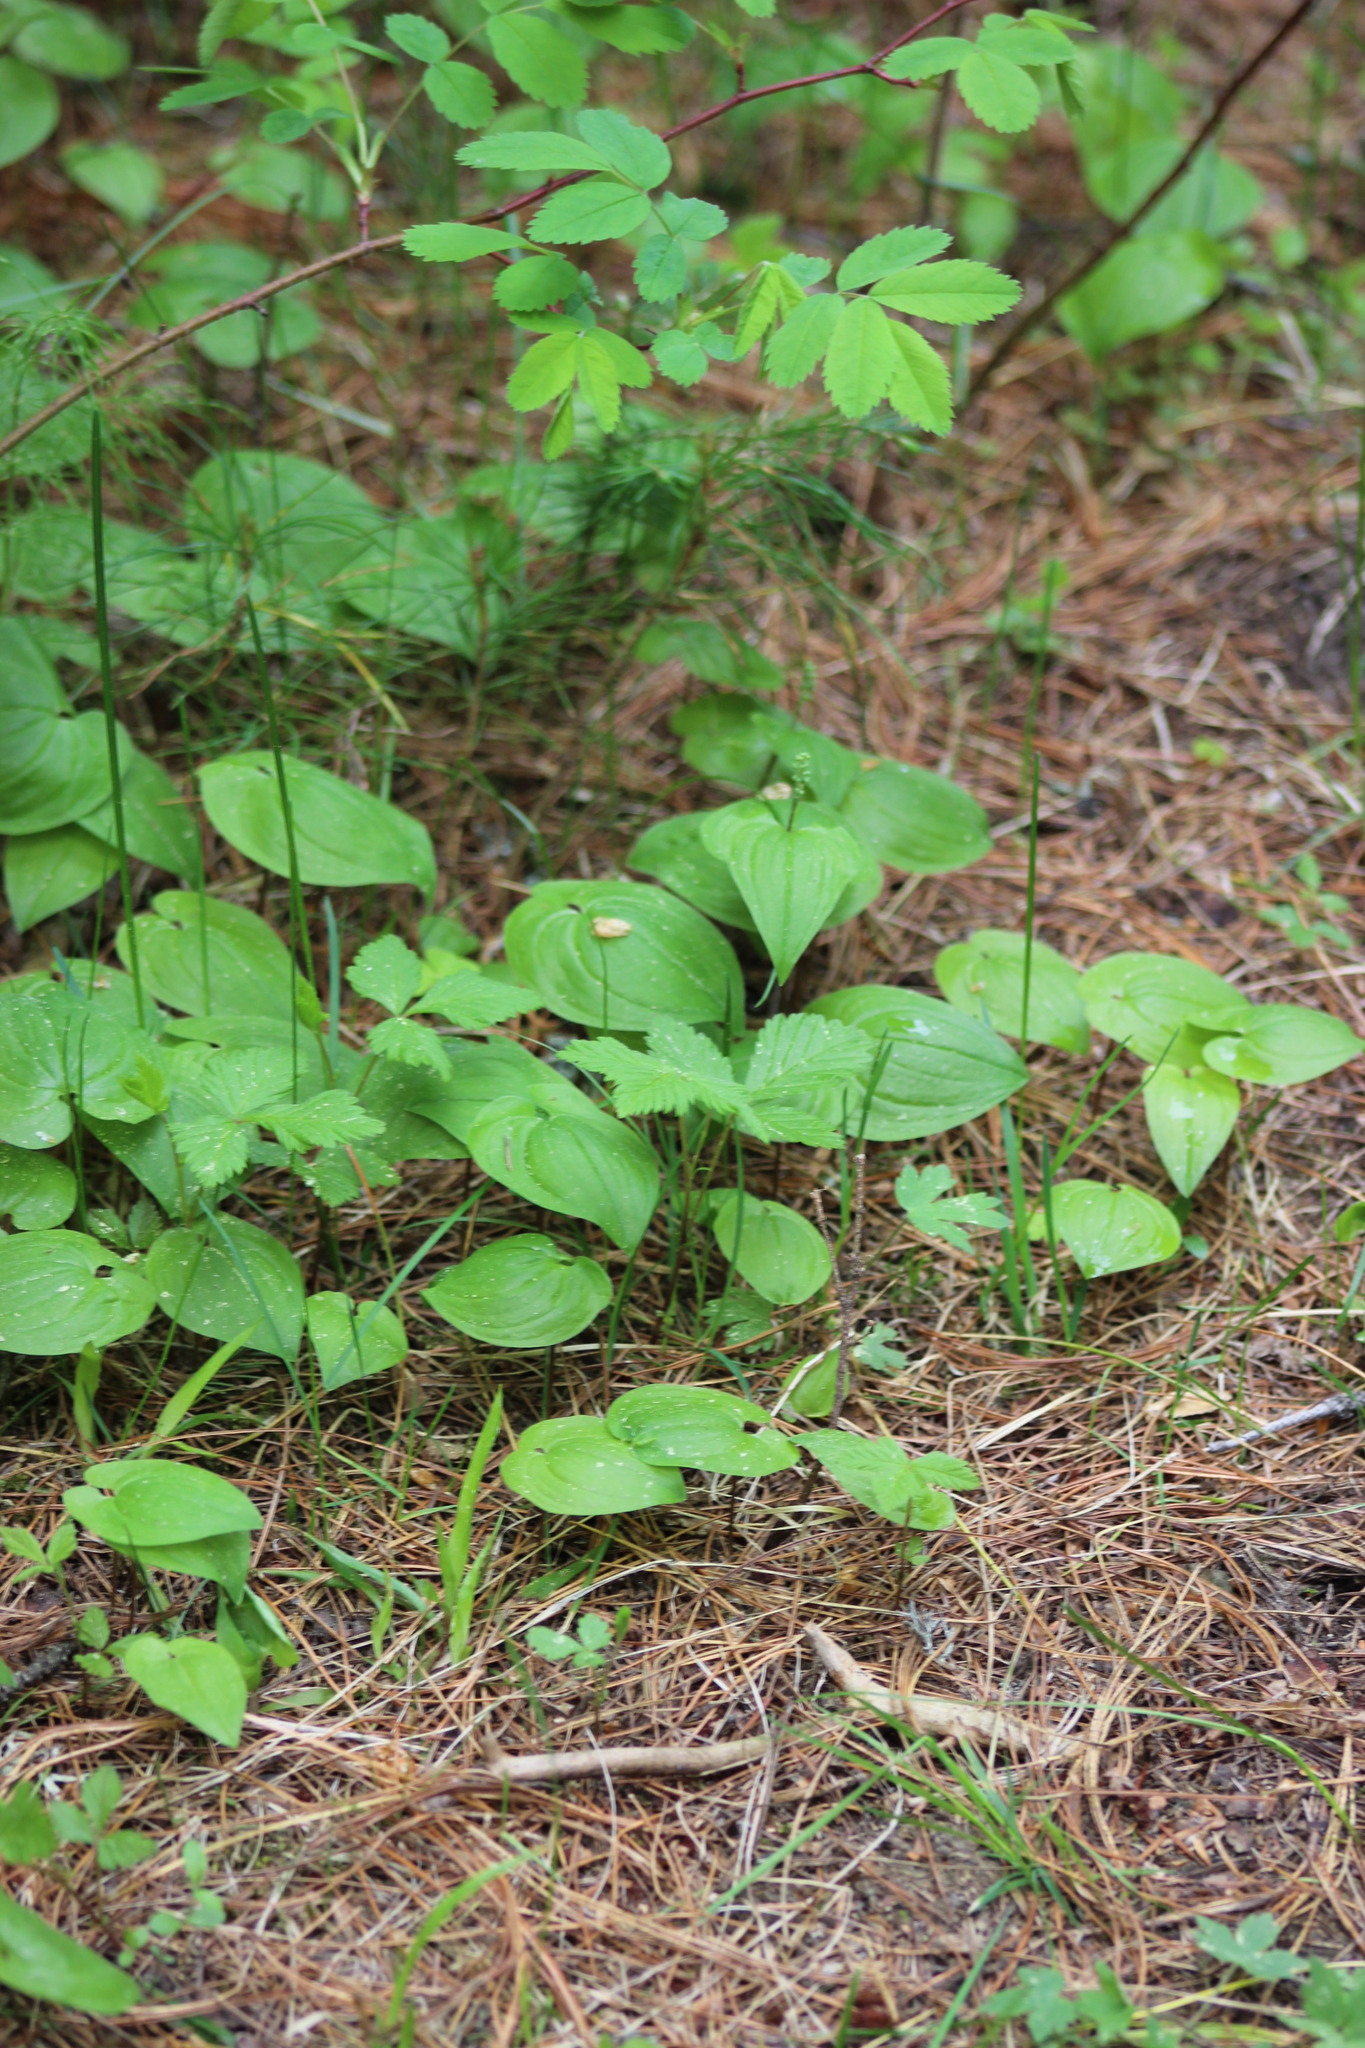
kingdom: Plantae
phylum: Tracheophyta
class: Liliopsida
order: Asparagales
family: Asparagaceae
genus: Maianthemum
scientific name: Maianthemum bifolium
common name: May lily
